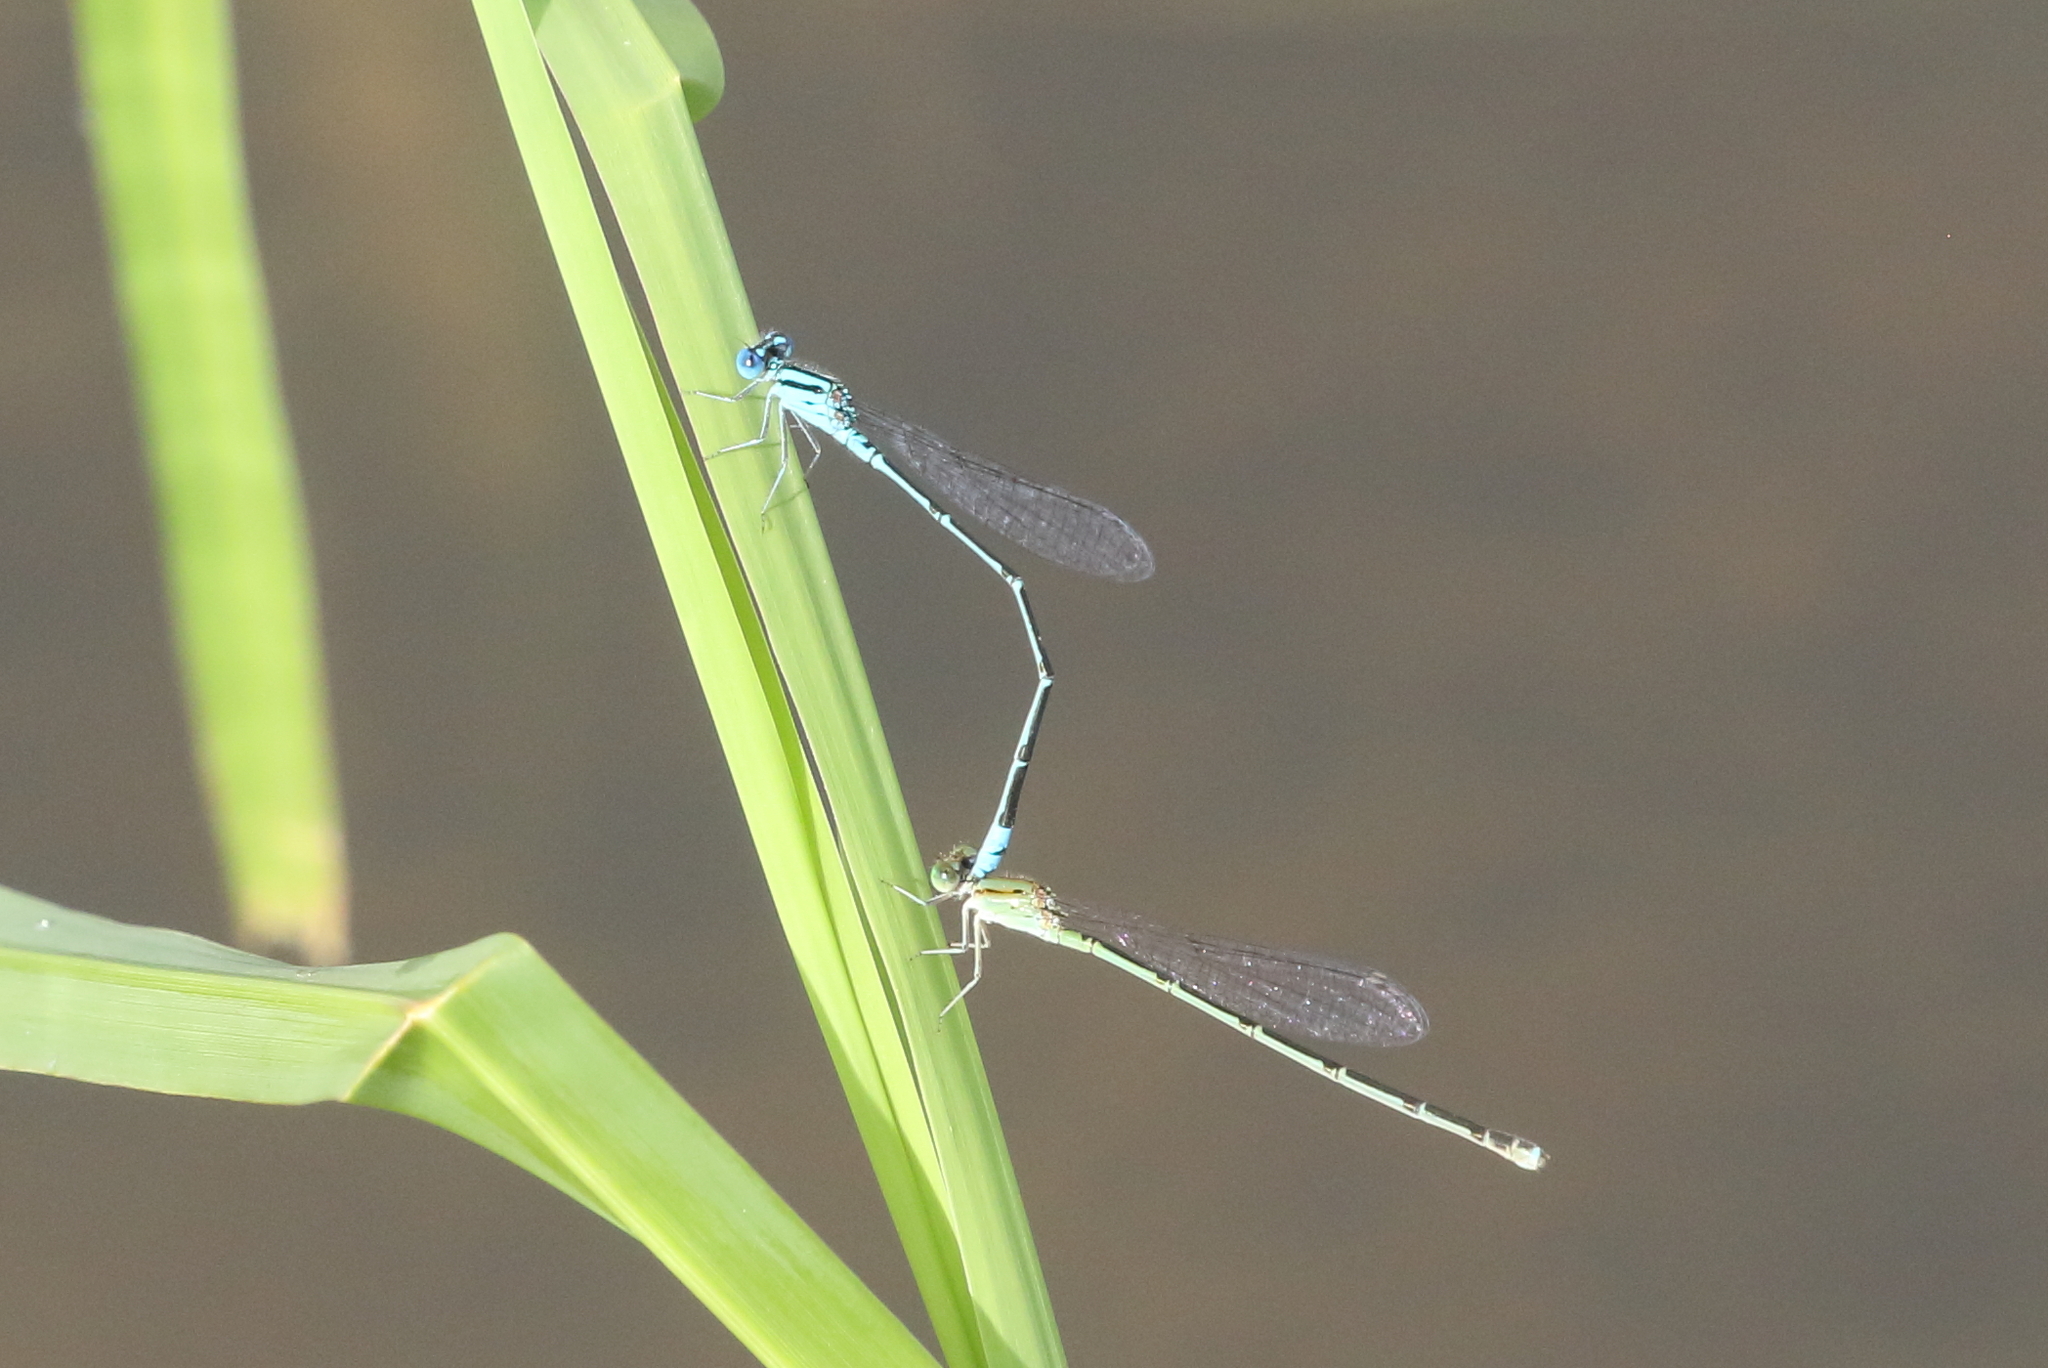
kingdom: Animalia
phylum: Arthropoda
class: Insecta
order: Odonata
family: Coenagrionidae
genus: Pseudagrion
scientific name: Pseudagrion microcephalum
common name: Blue riverdamsel
